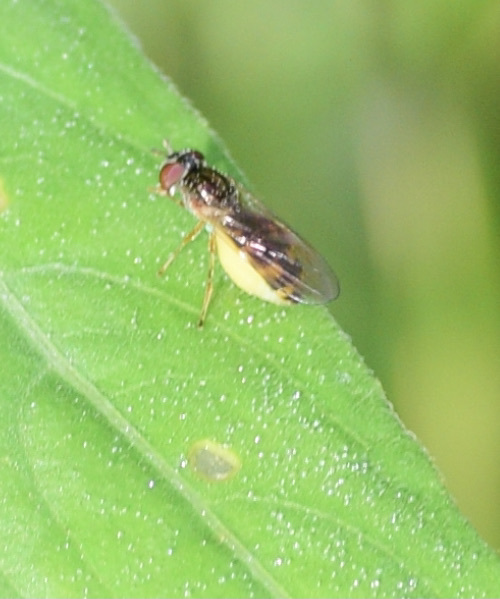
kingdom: Animalia
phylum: Arthropoda
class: Insecta
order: Diptera
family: Syrphidae
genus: Melanostoma
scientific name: Melanostoma mellina
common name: Hover fly
